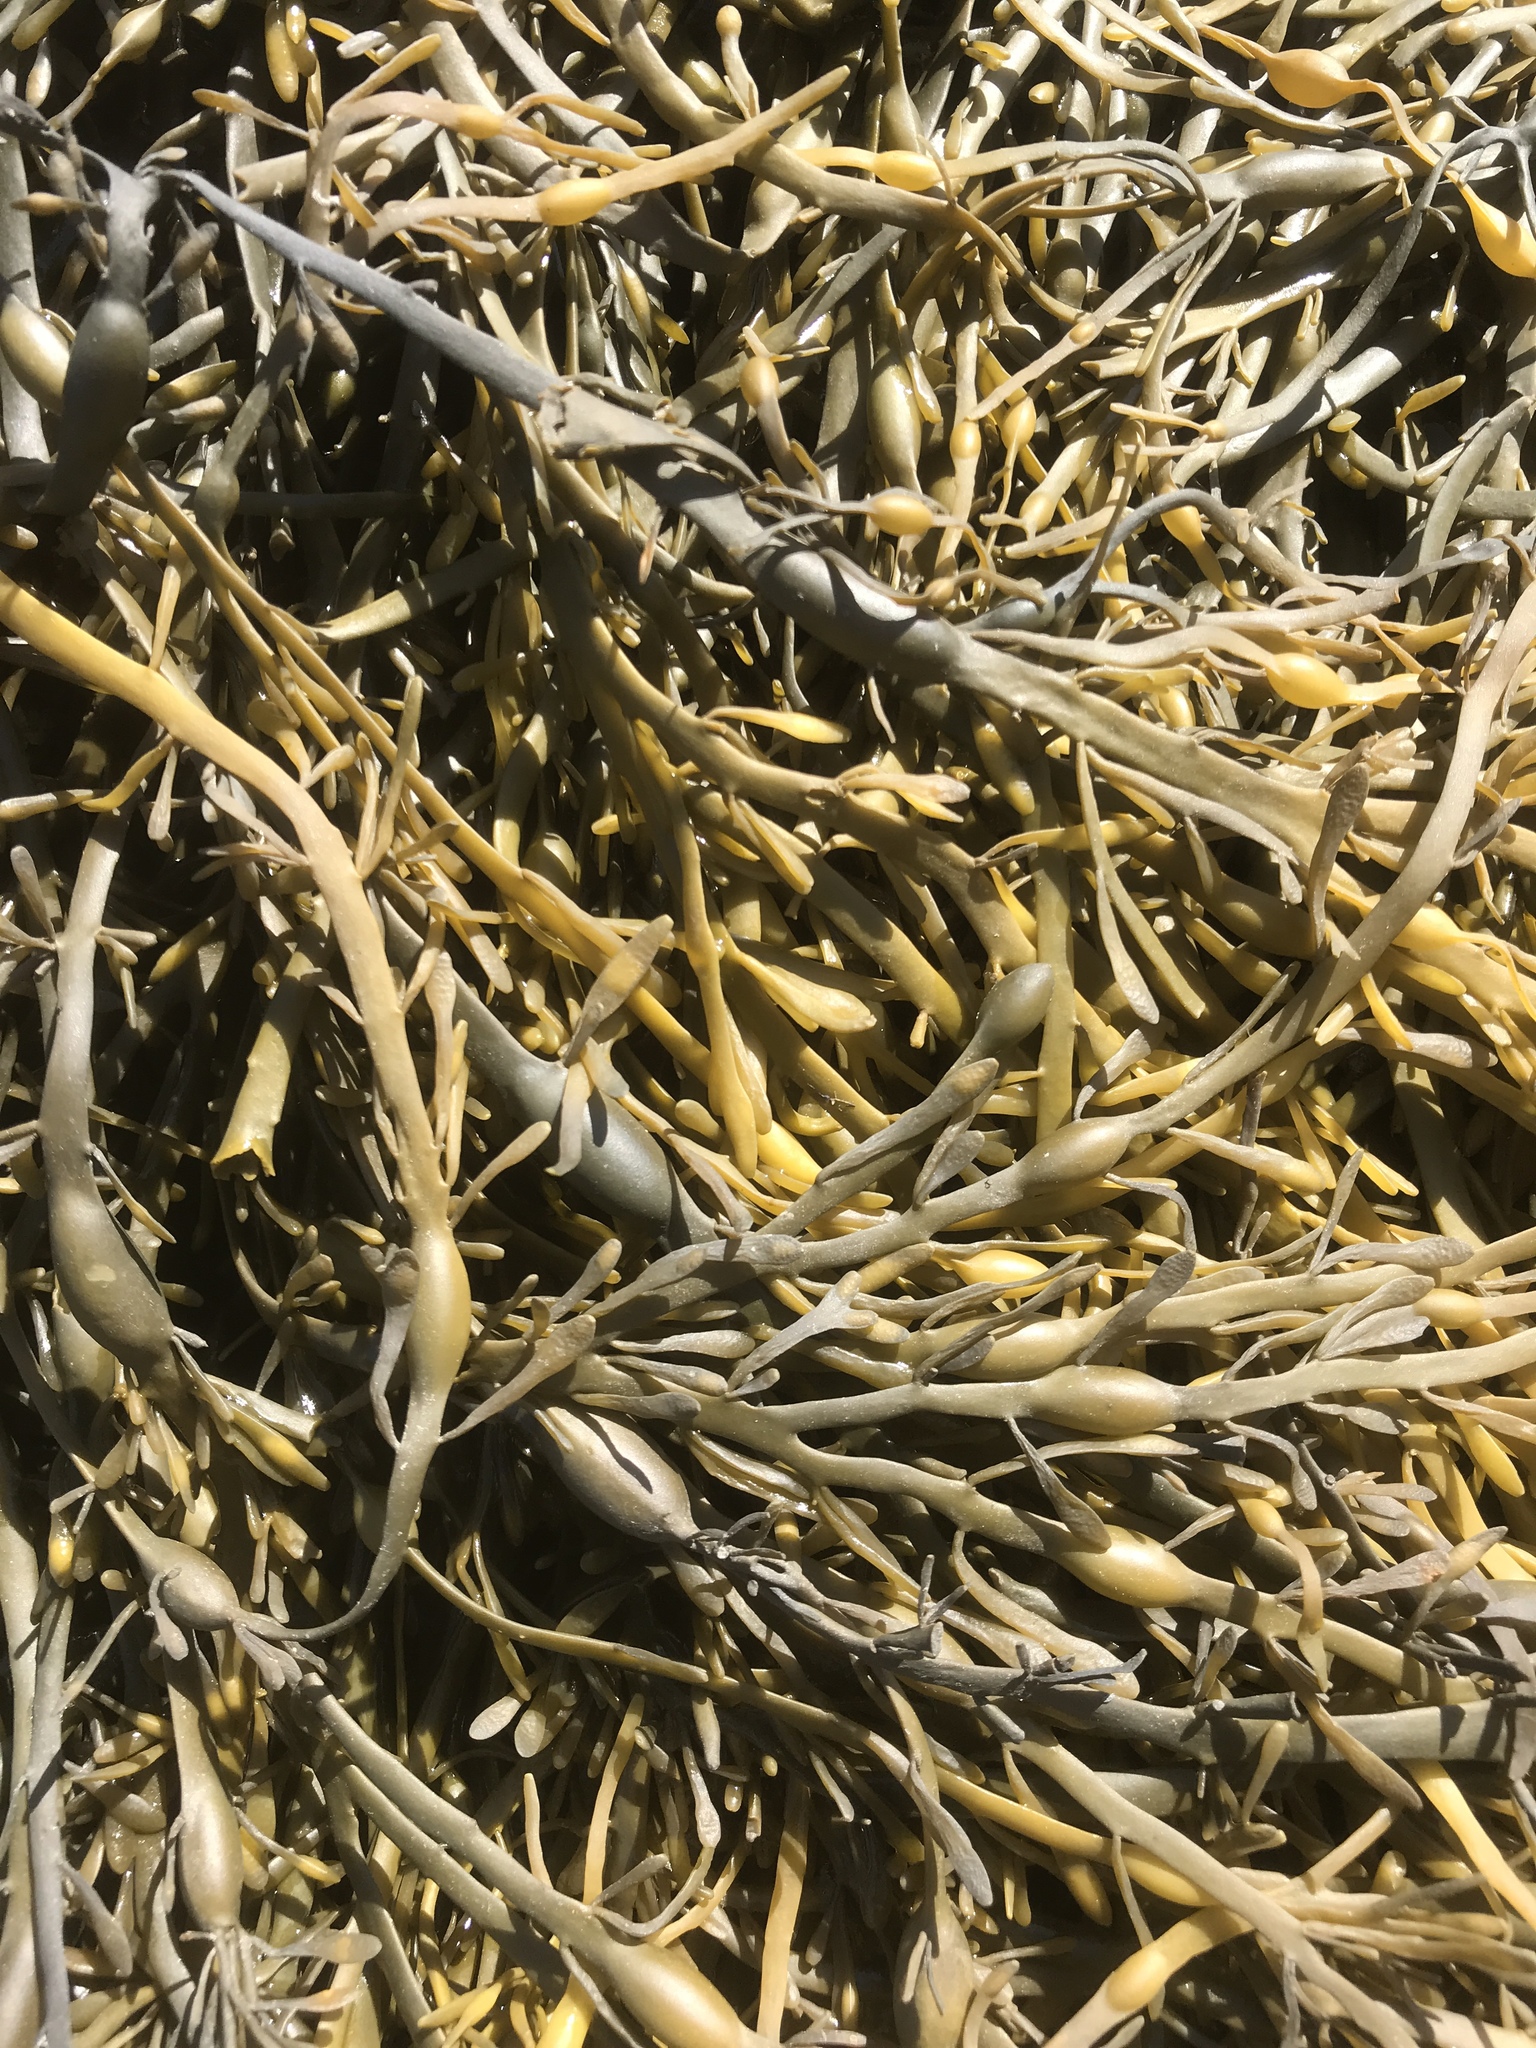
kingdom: Chromista
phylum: Ochrophyta
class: Phaeophyceae
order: Fucales
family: Fucaceae
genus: Ascophyllum
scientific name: Ascophyllum nodosum
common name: Knotted wrack
